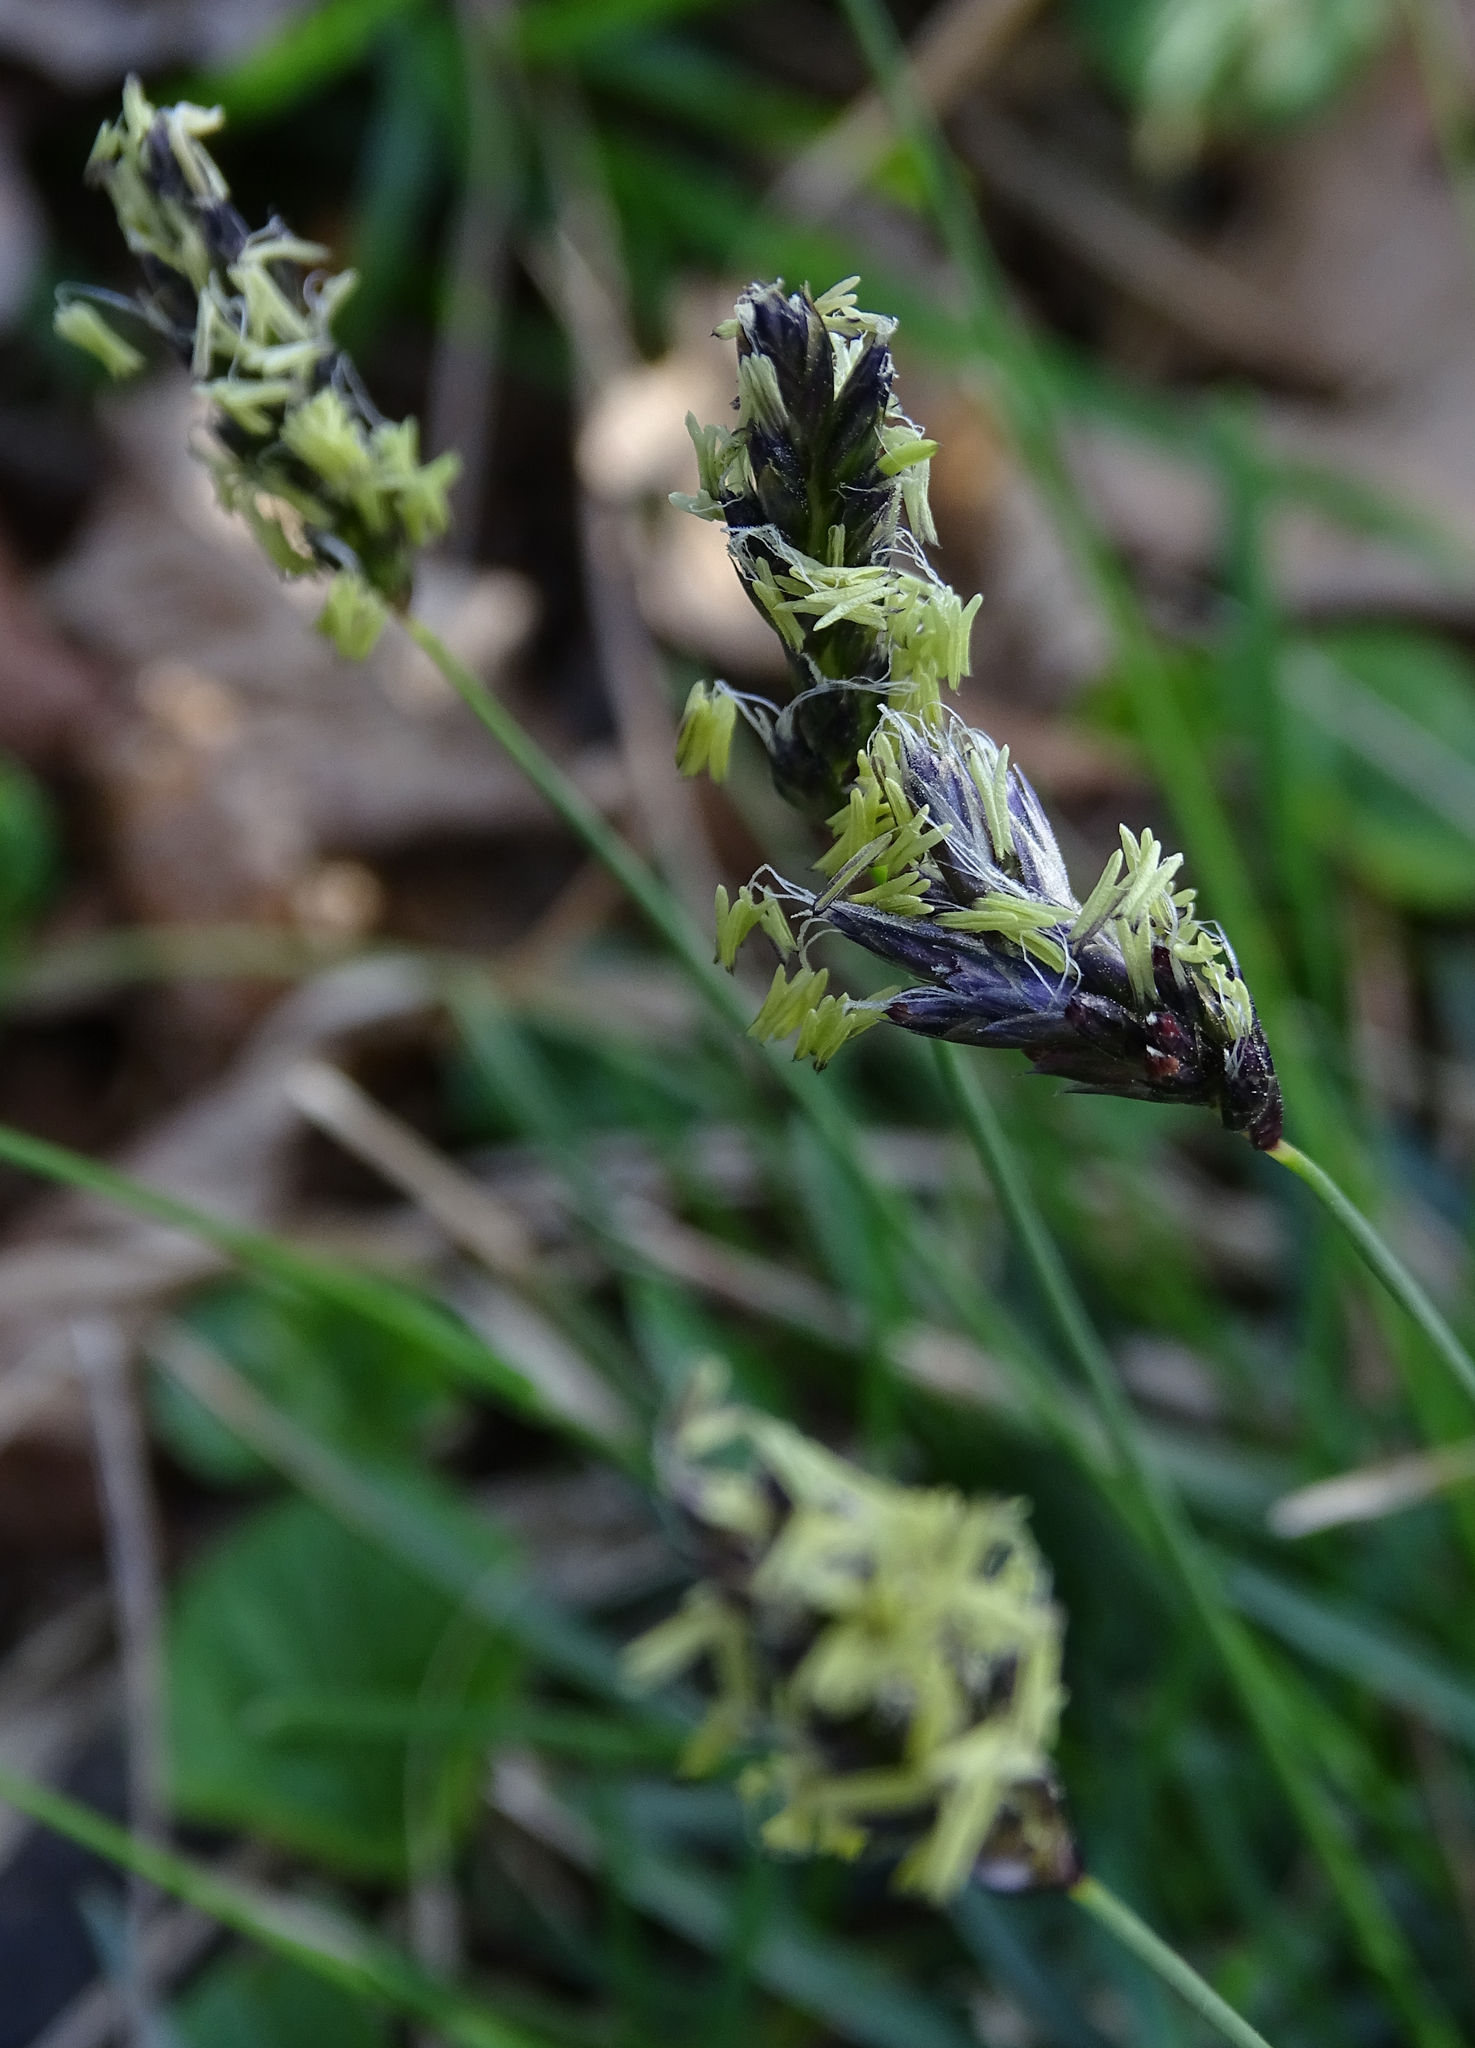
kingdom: Plantae
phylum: Tracheophyta
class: Liliopsida
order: Poales
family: Poaceae
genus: Sesleria
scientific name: Sesleria caerulea
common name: Blue moor-grass
